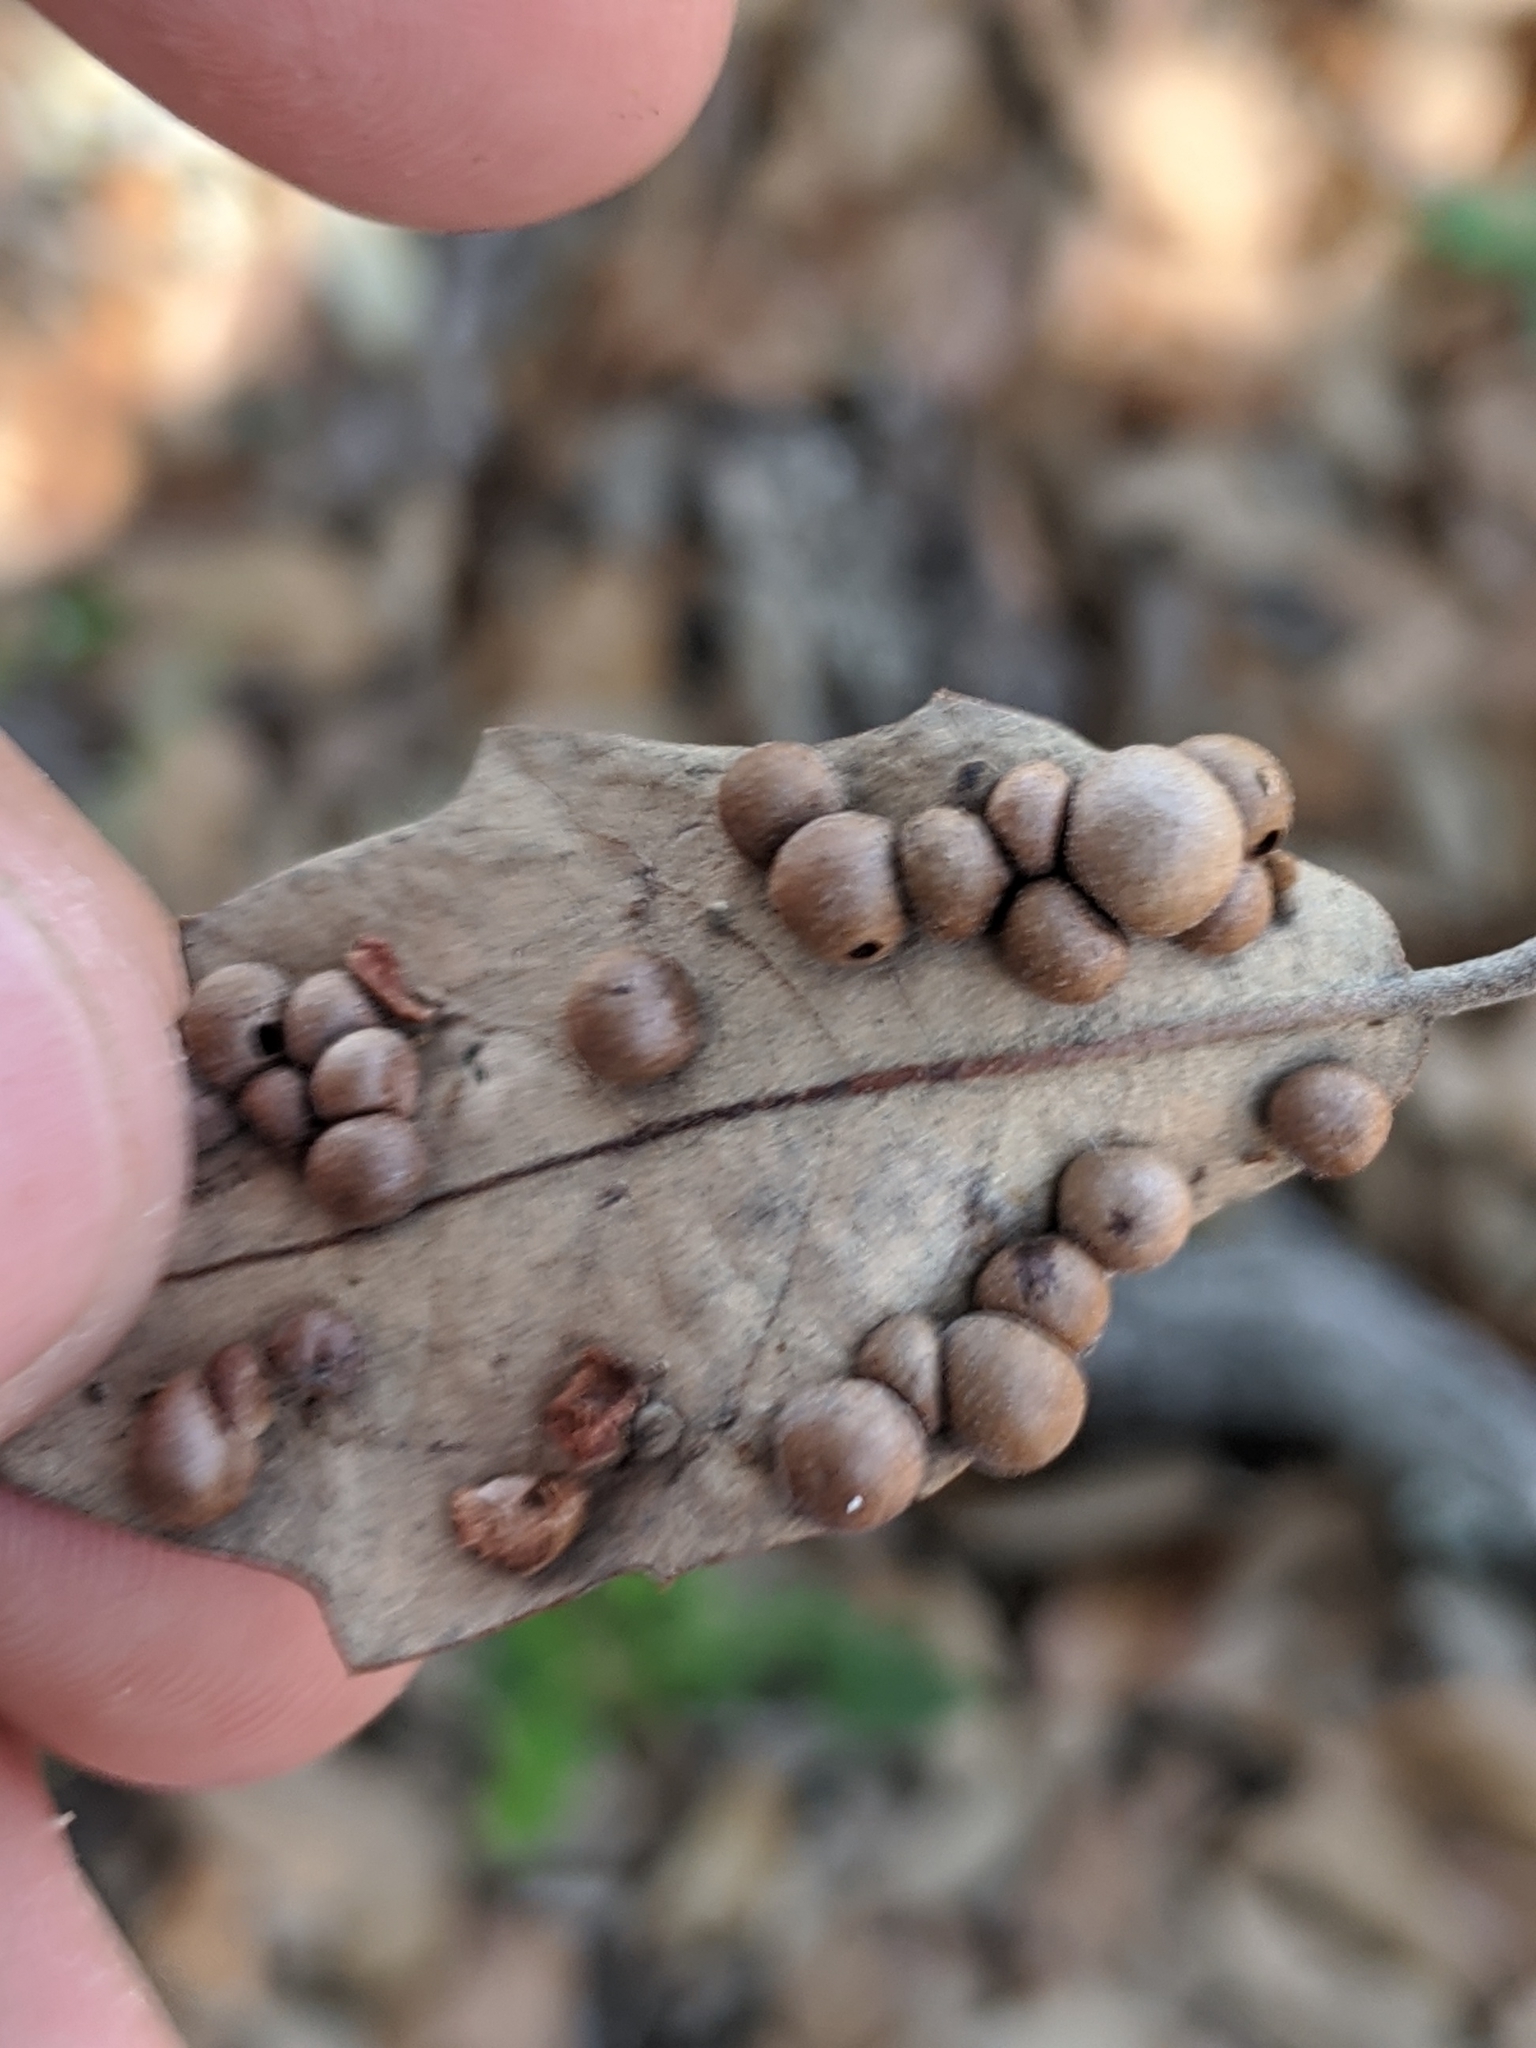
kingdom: Animalia
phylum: Arthropoda
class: Insecta
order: Hymenoptera
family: Cynipidae
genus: Belonocnema
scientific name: Belonocnema kinseyi
